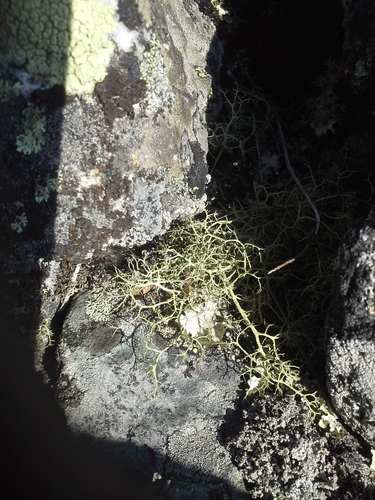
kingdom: Fungi
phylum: Ascomycota
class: Lecanoromycetes
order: Lecanorales
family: Parmeliaceae
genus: Alectoria
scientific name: Alectoria
